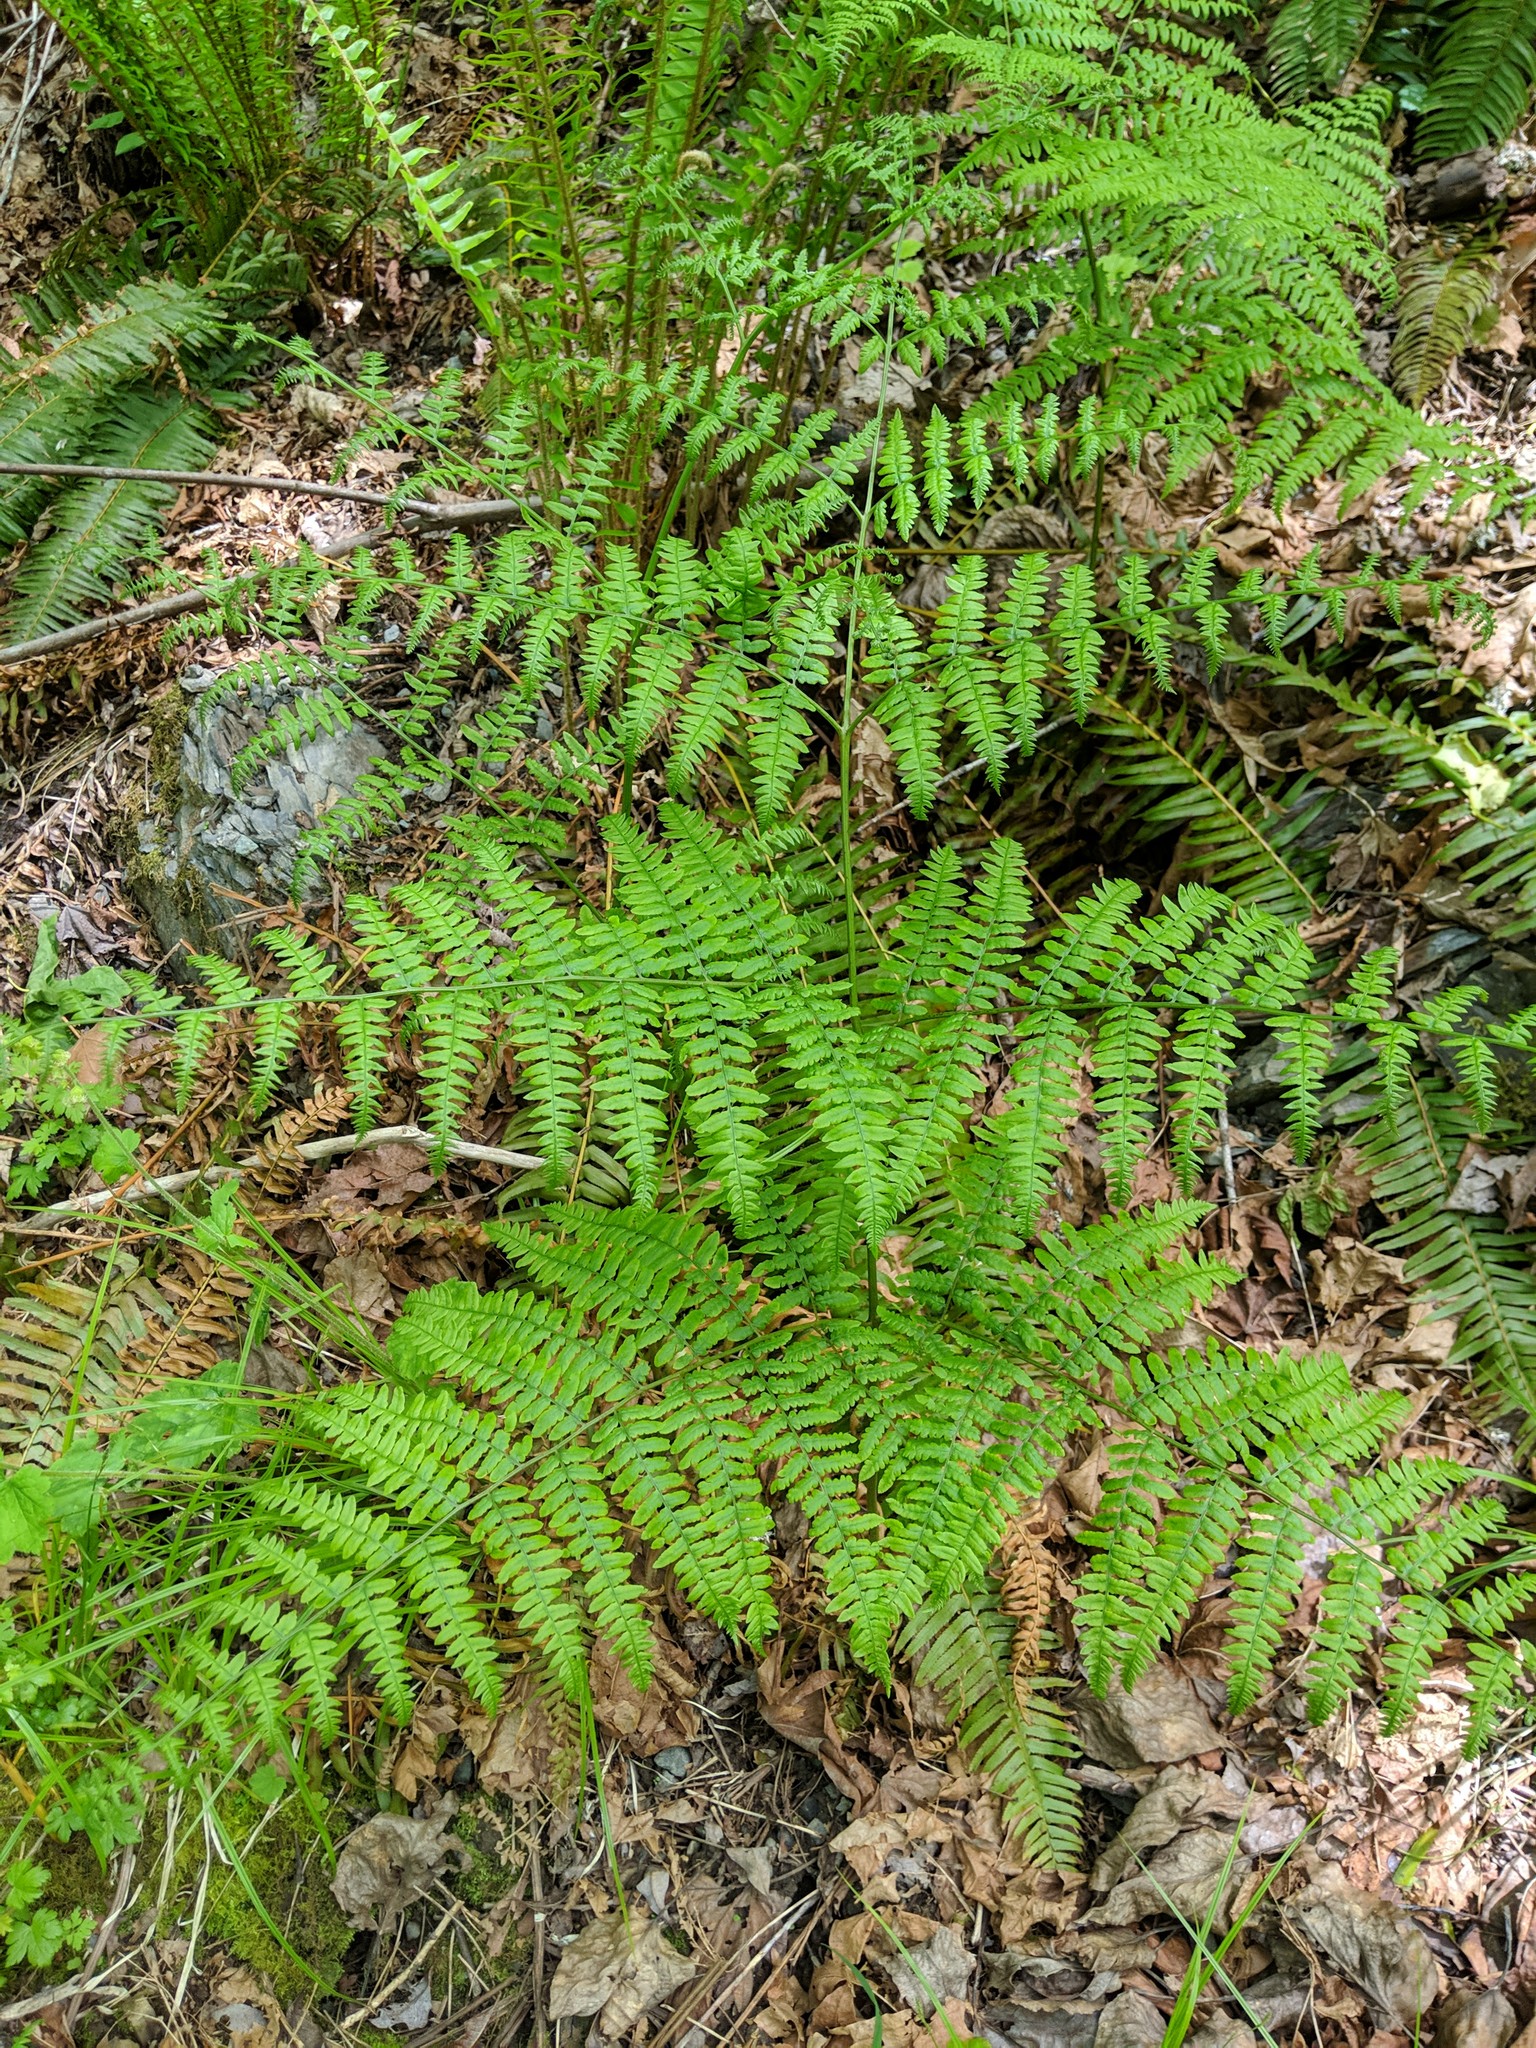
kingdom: Plantae
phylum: Tracheophyta
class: Polypodiopsida
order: Polypodiales
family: Dennstaedtiaceae
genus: Pteridium
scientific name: Pteridium aquilinum
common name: Bracken
